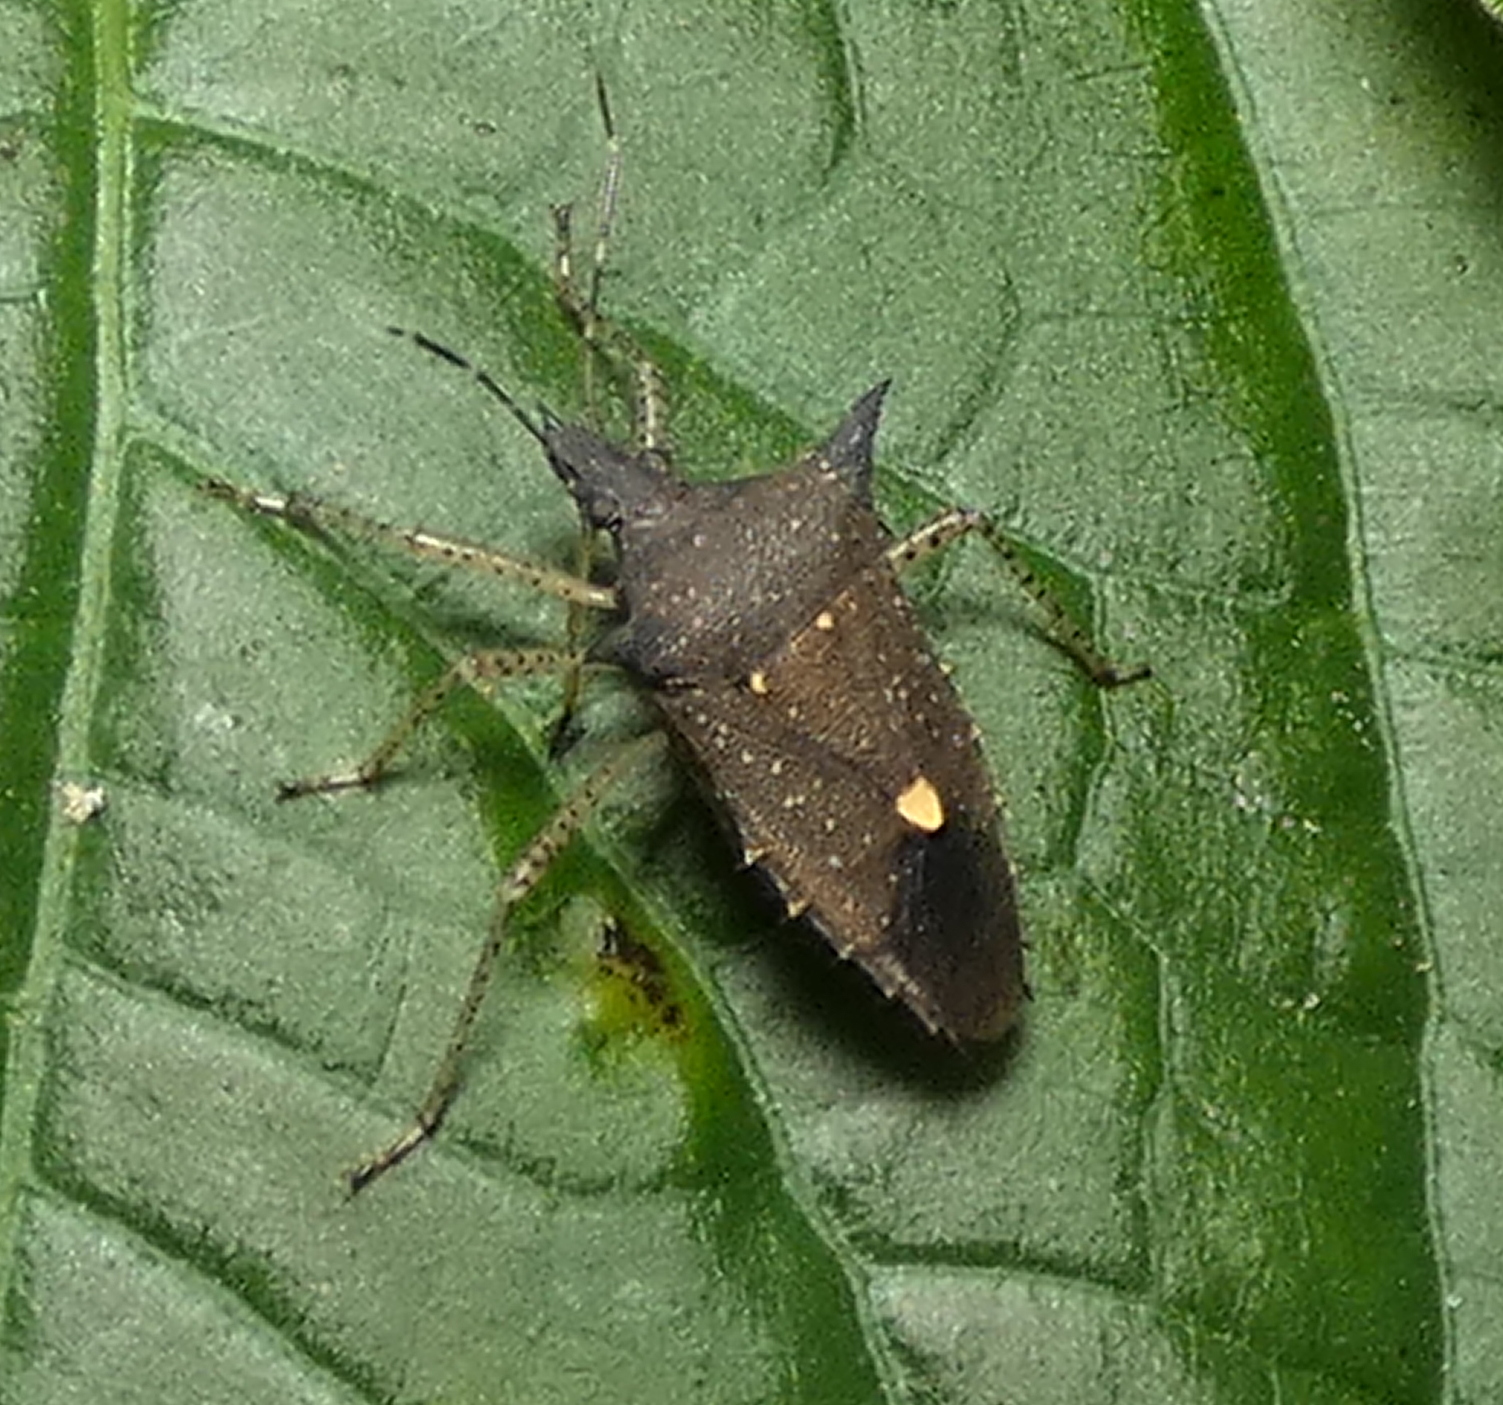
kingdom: Animalia
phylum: Arthropoda
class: Insecta
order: Hemiptera
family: Pentatomidae
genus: Proxys
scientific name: Proxys albopunctulatus
